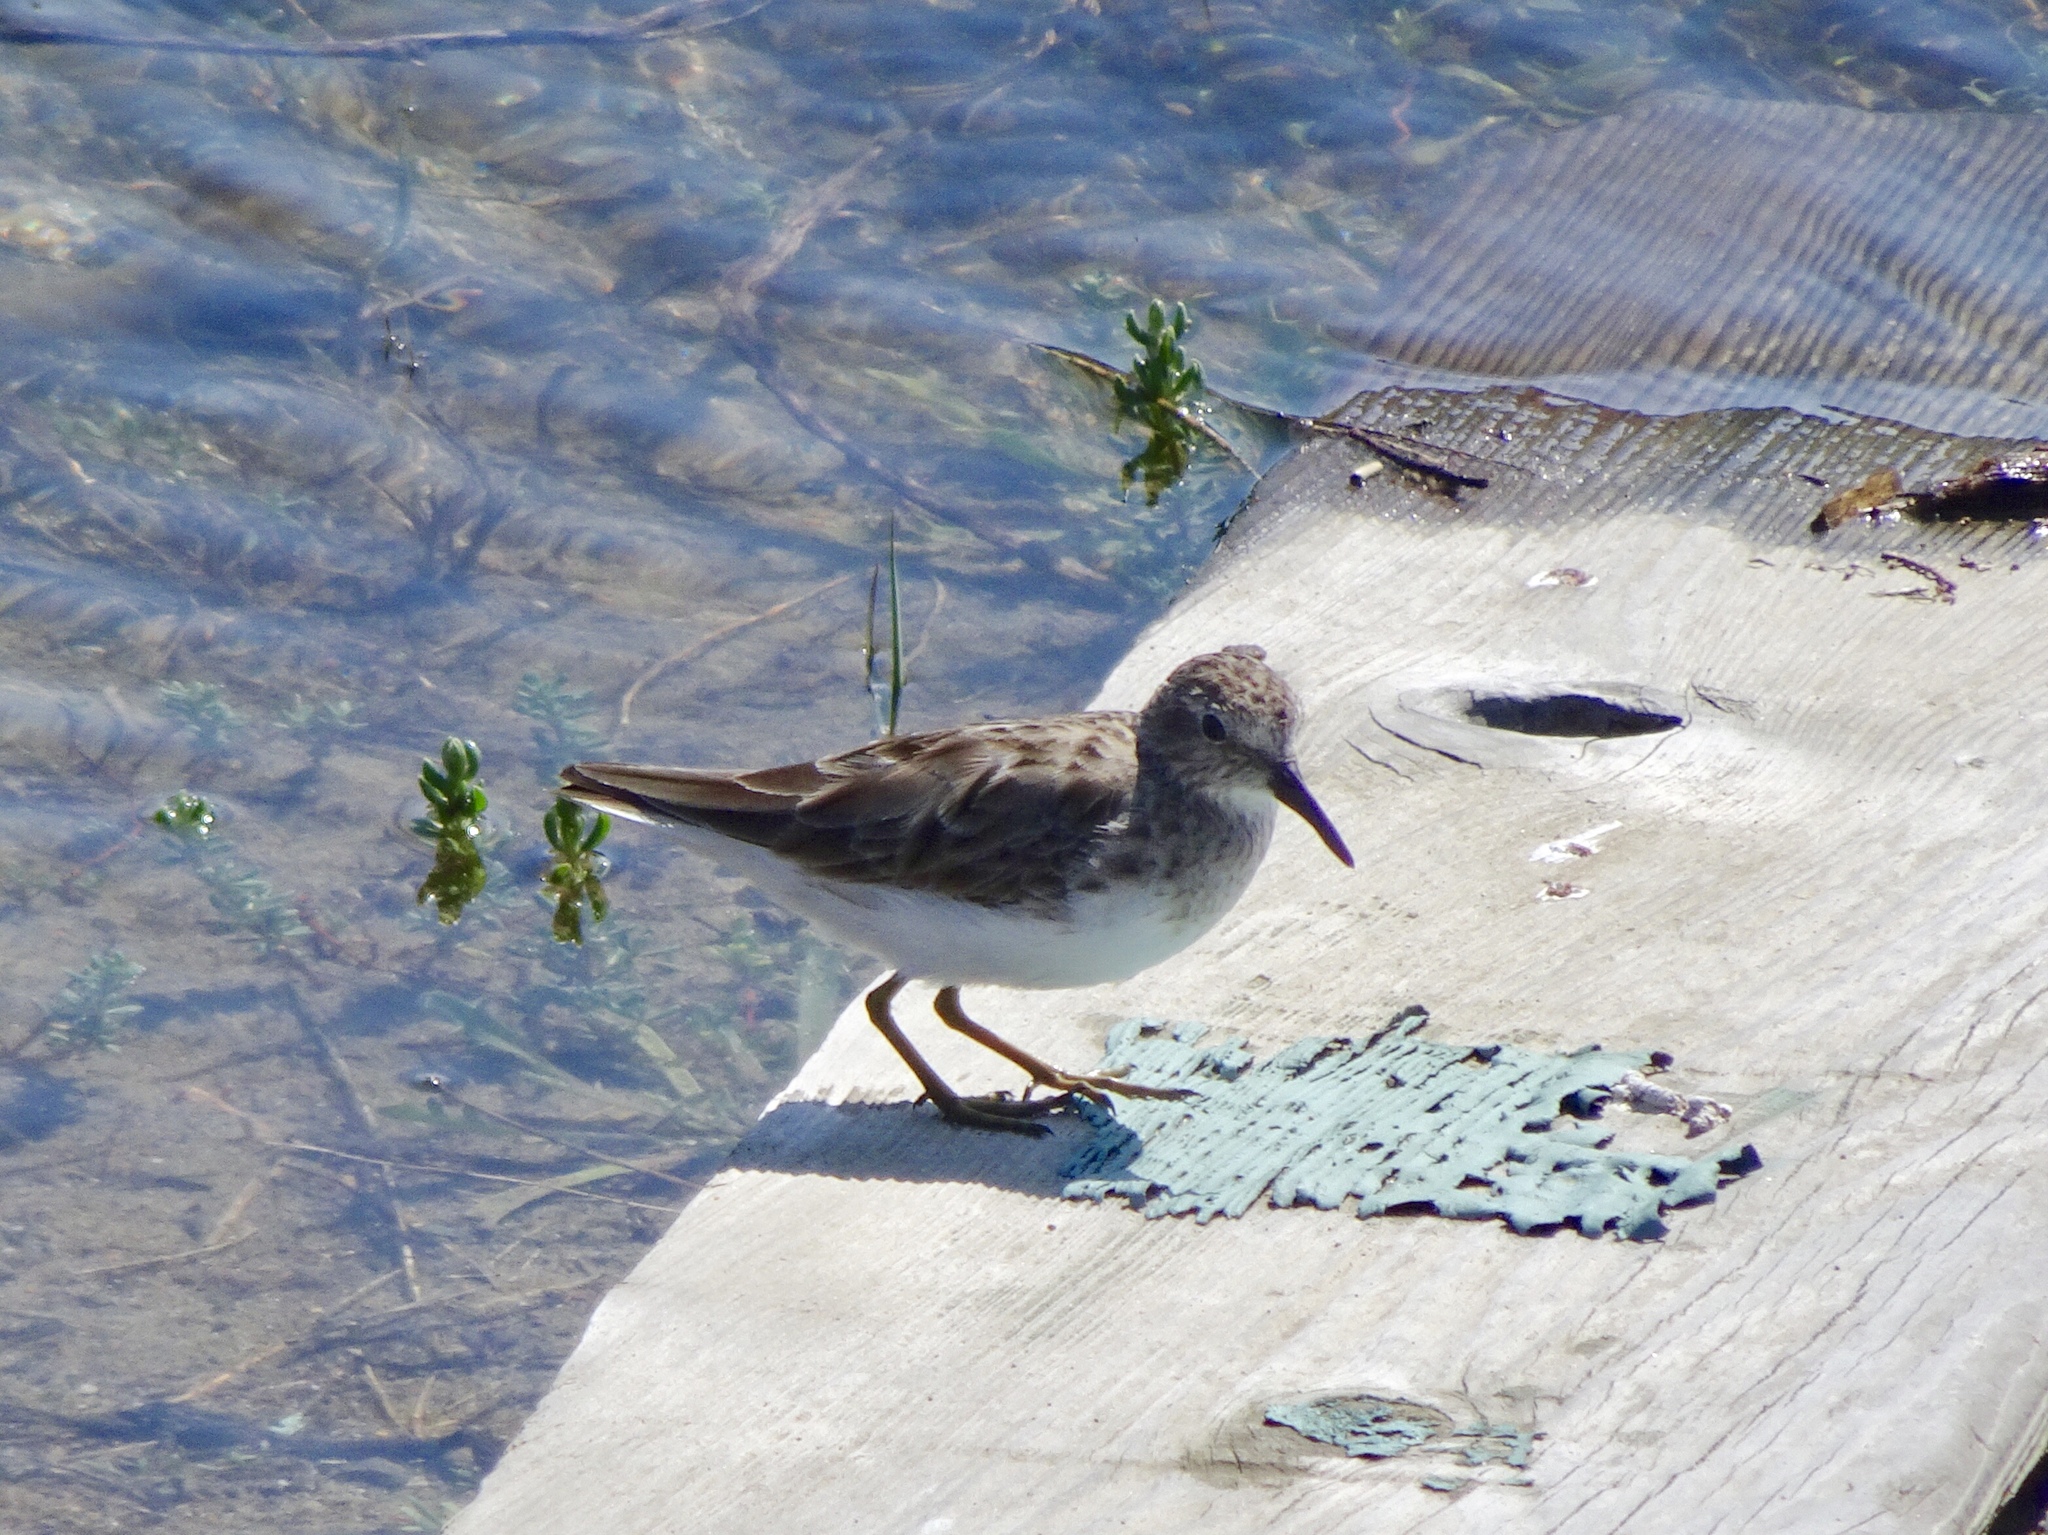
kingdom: Animalia
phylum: Chordata
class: Aves
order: Charadriiformes
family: Scolopacidae
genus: Calidris
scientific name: Calidris minutilla
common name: Least sandpiper
